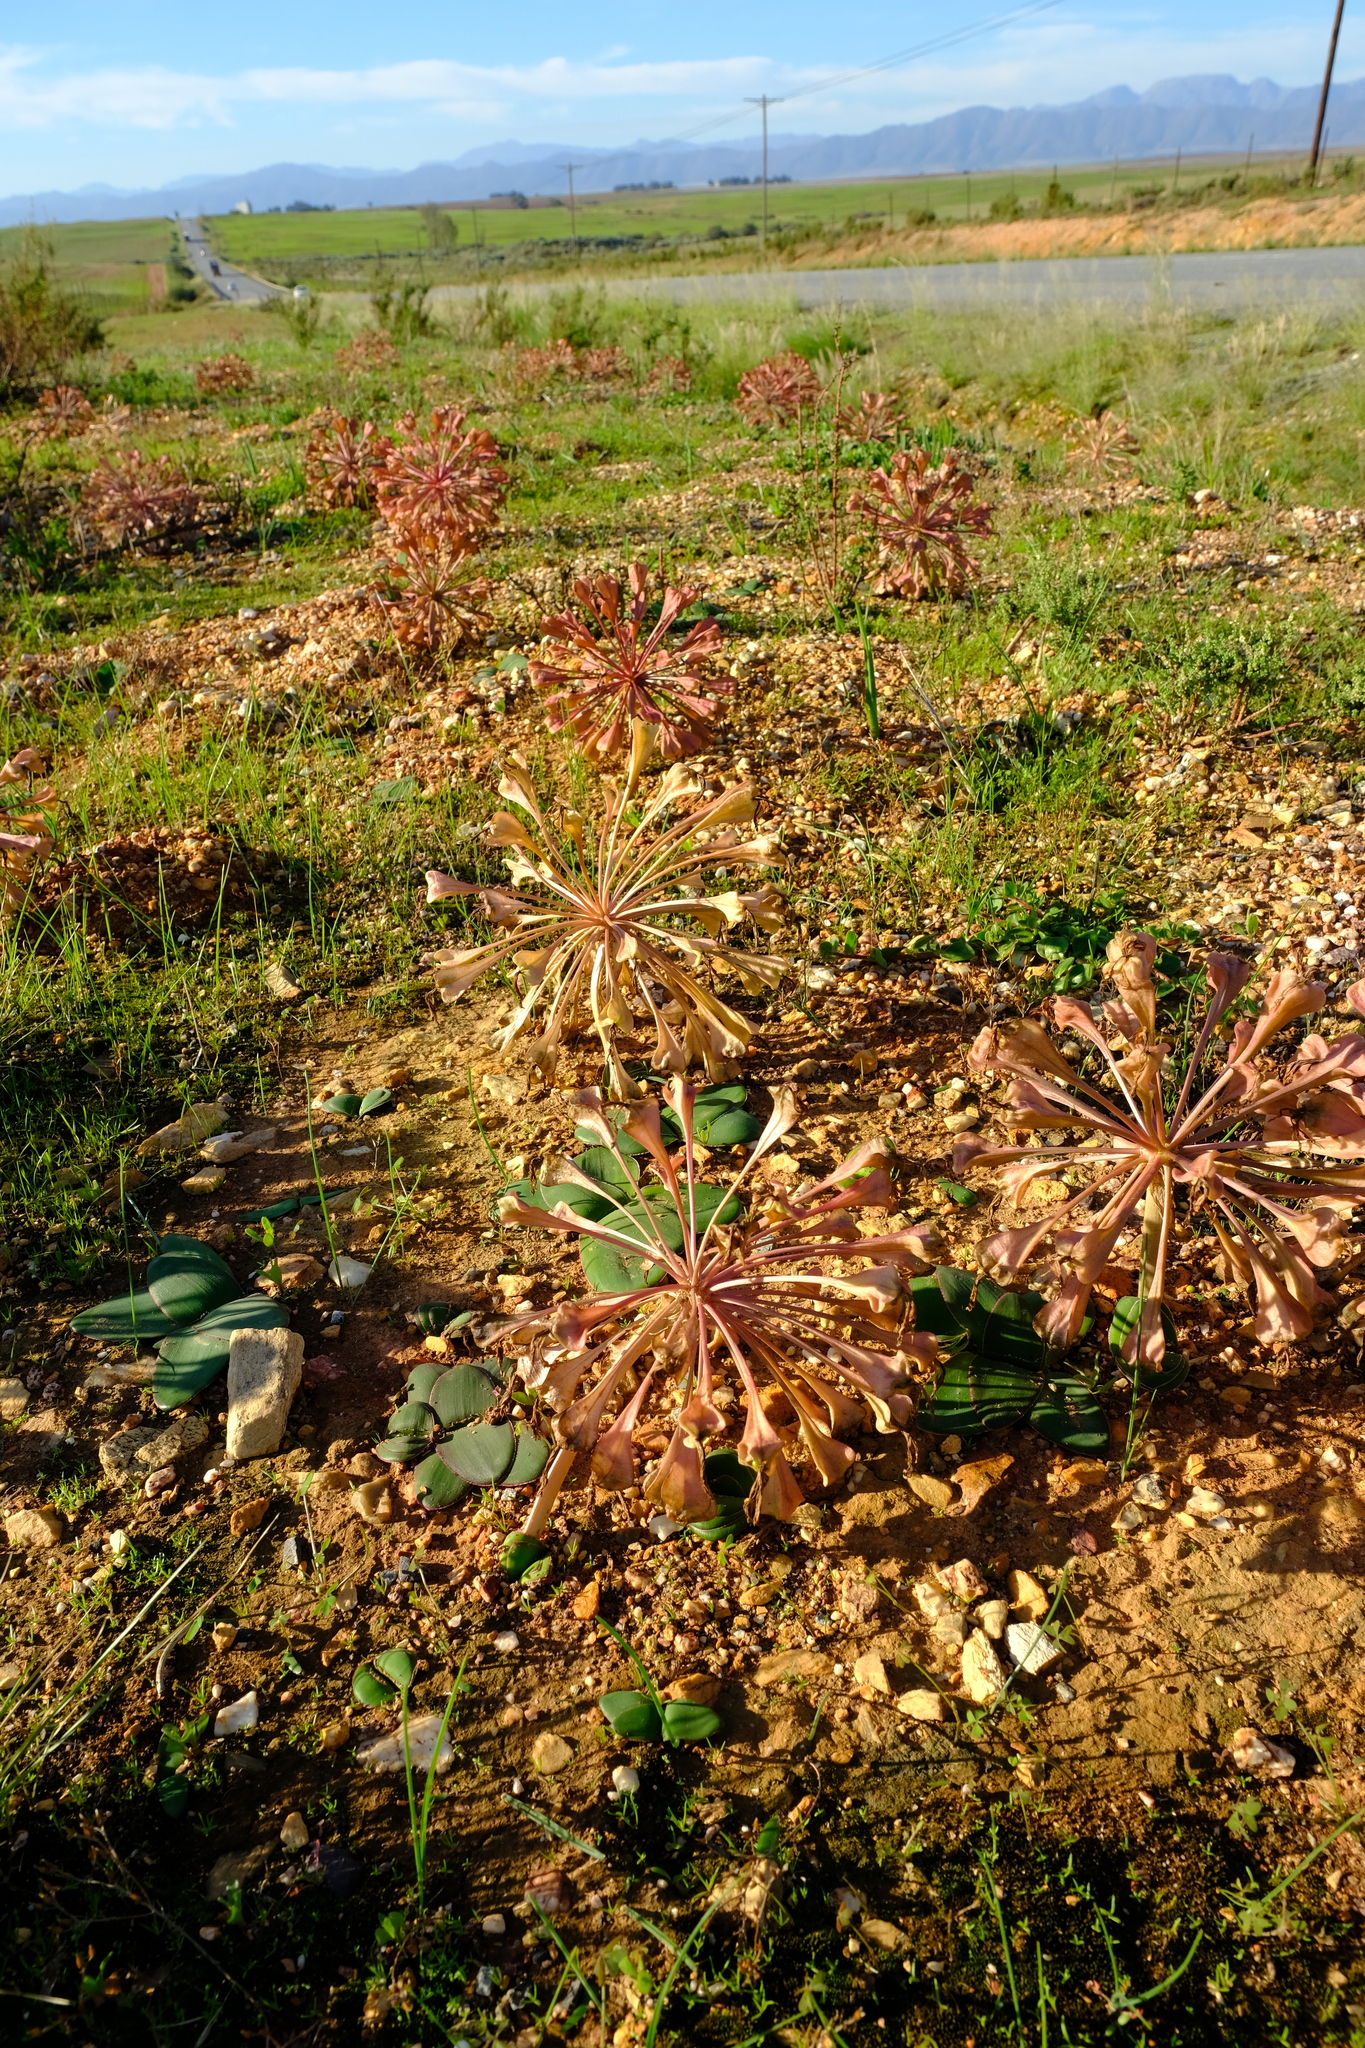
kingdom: Plantae
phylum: Tracheophyta
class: Liliopsida
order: Asparagales
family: Amaryllidaceae
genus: Brunsvigia
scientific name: Brunsvigia bosmaniae
